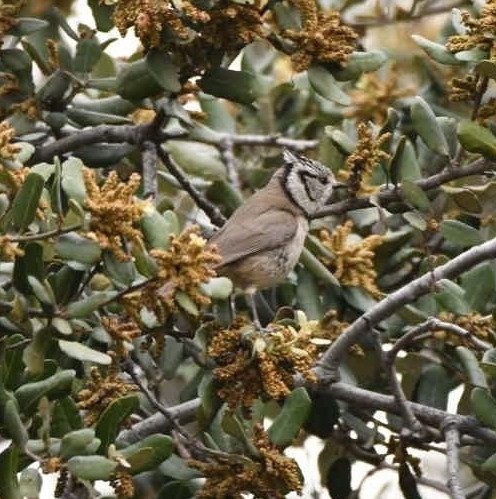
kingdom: Animalia
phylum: Chordata
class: Aves
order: Passeriformes
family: Paridae
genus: Lophophanes
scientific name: Lophophanes cristatus
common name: European crested tit
